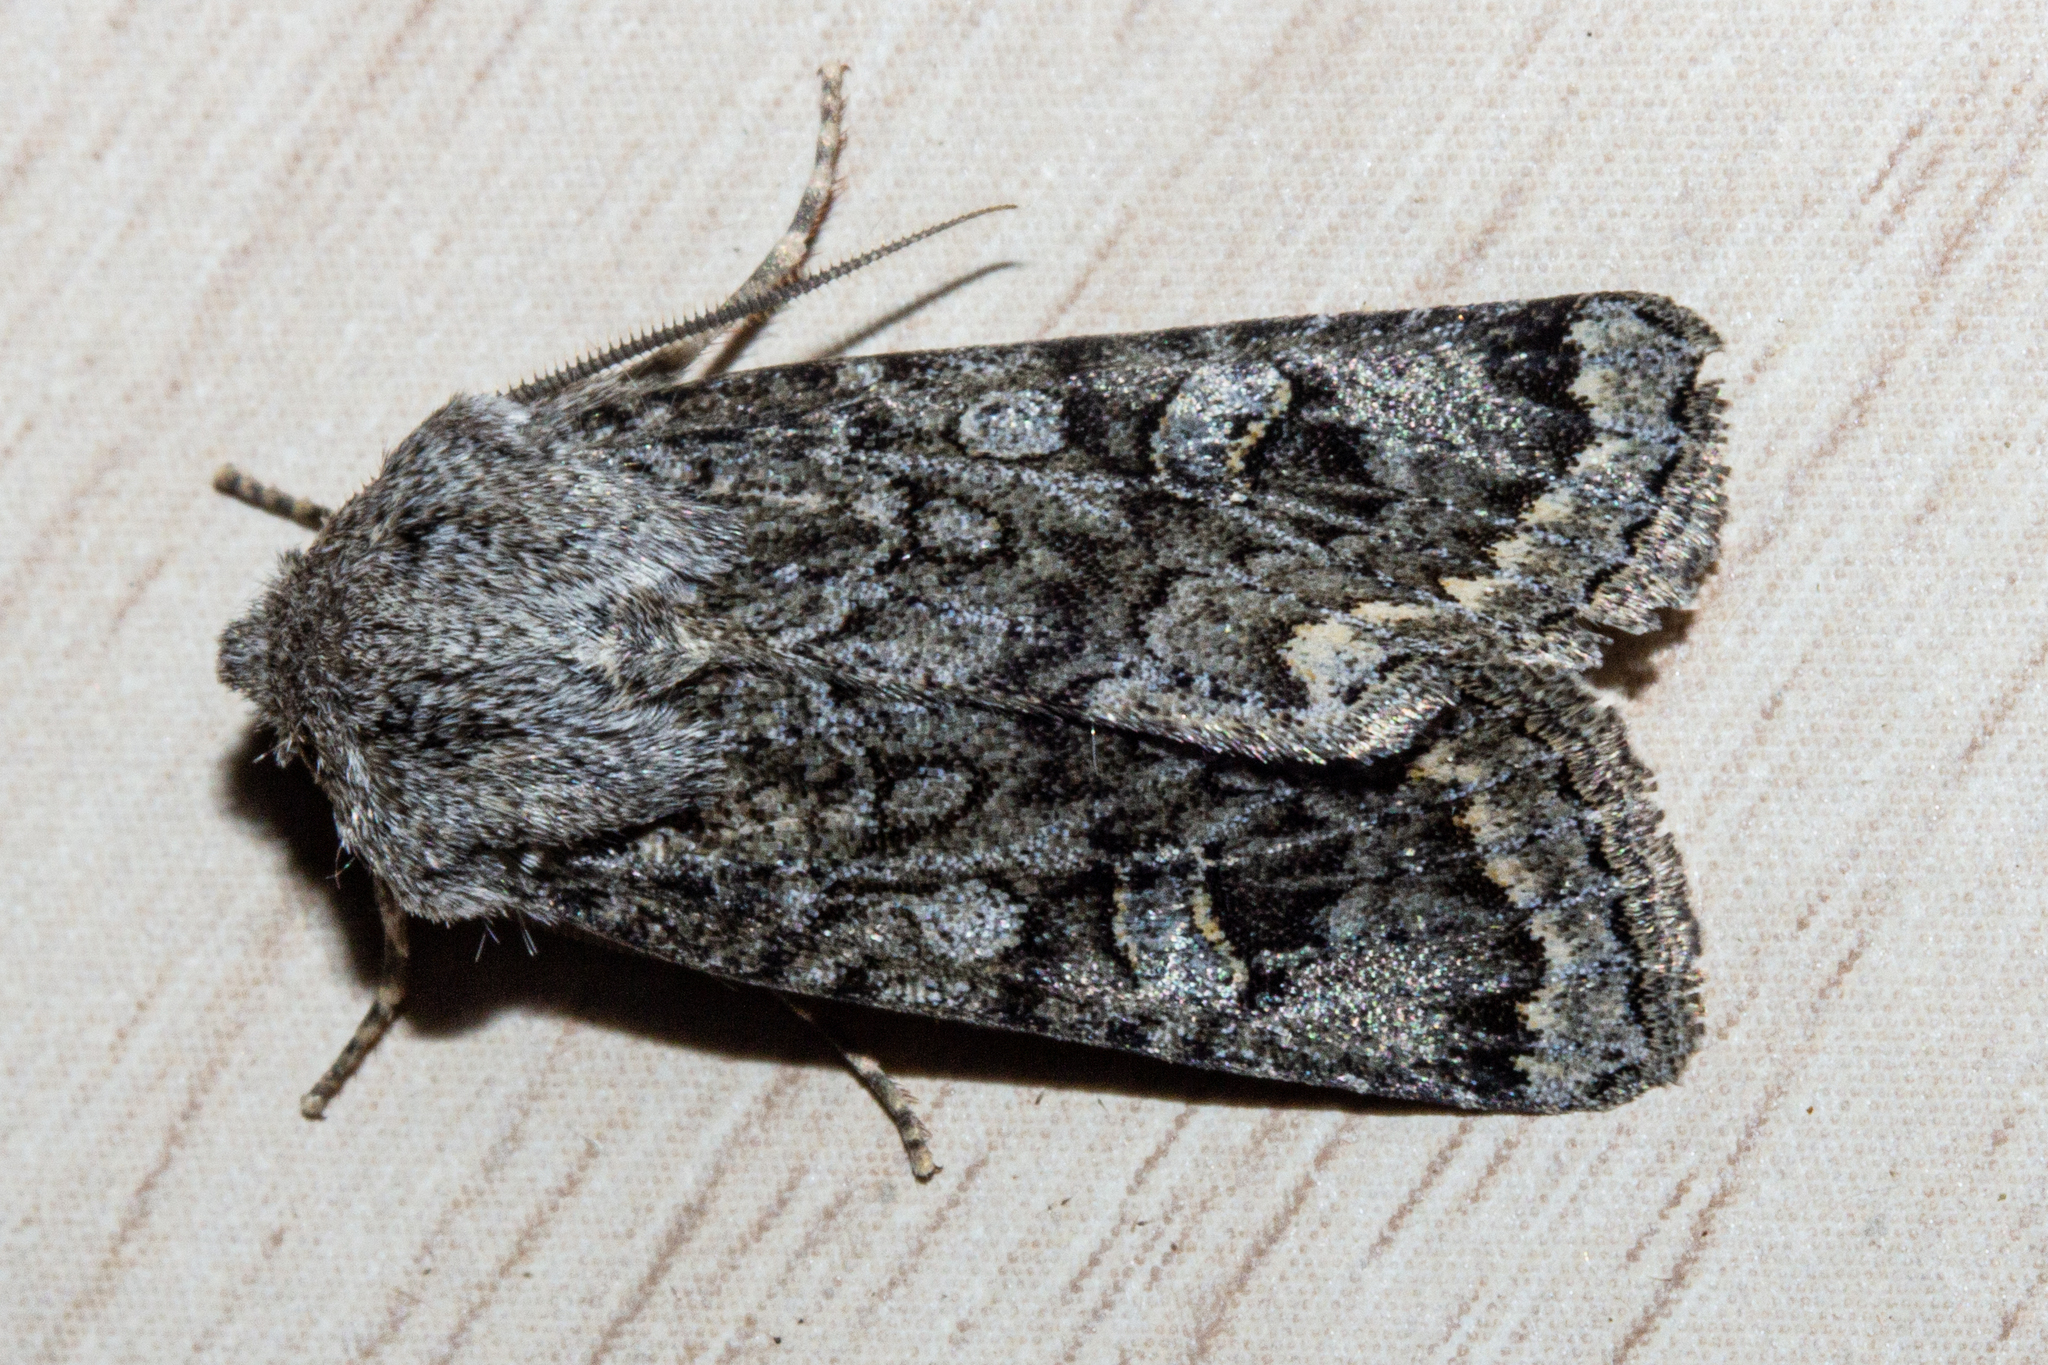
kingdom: Animalia
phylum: Arthropoda
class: Insecta
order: Lepidoptera
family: Noctuidae
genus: Ichneutica
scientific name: Ichneutica
